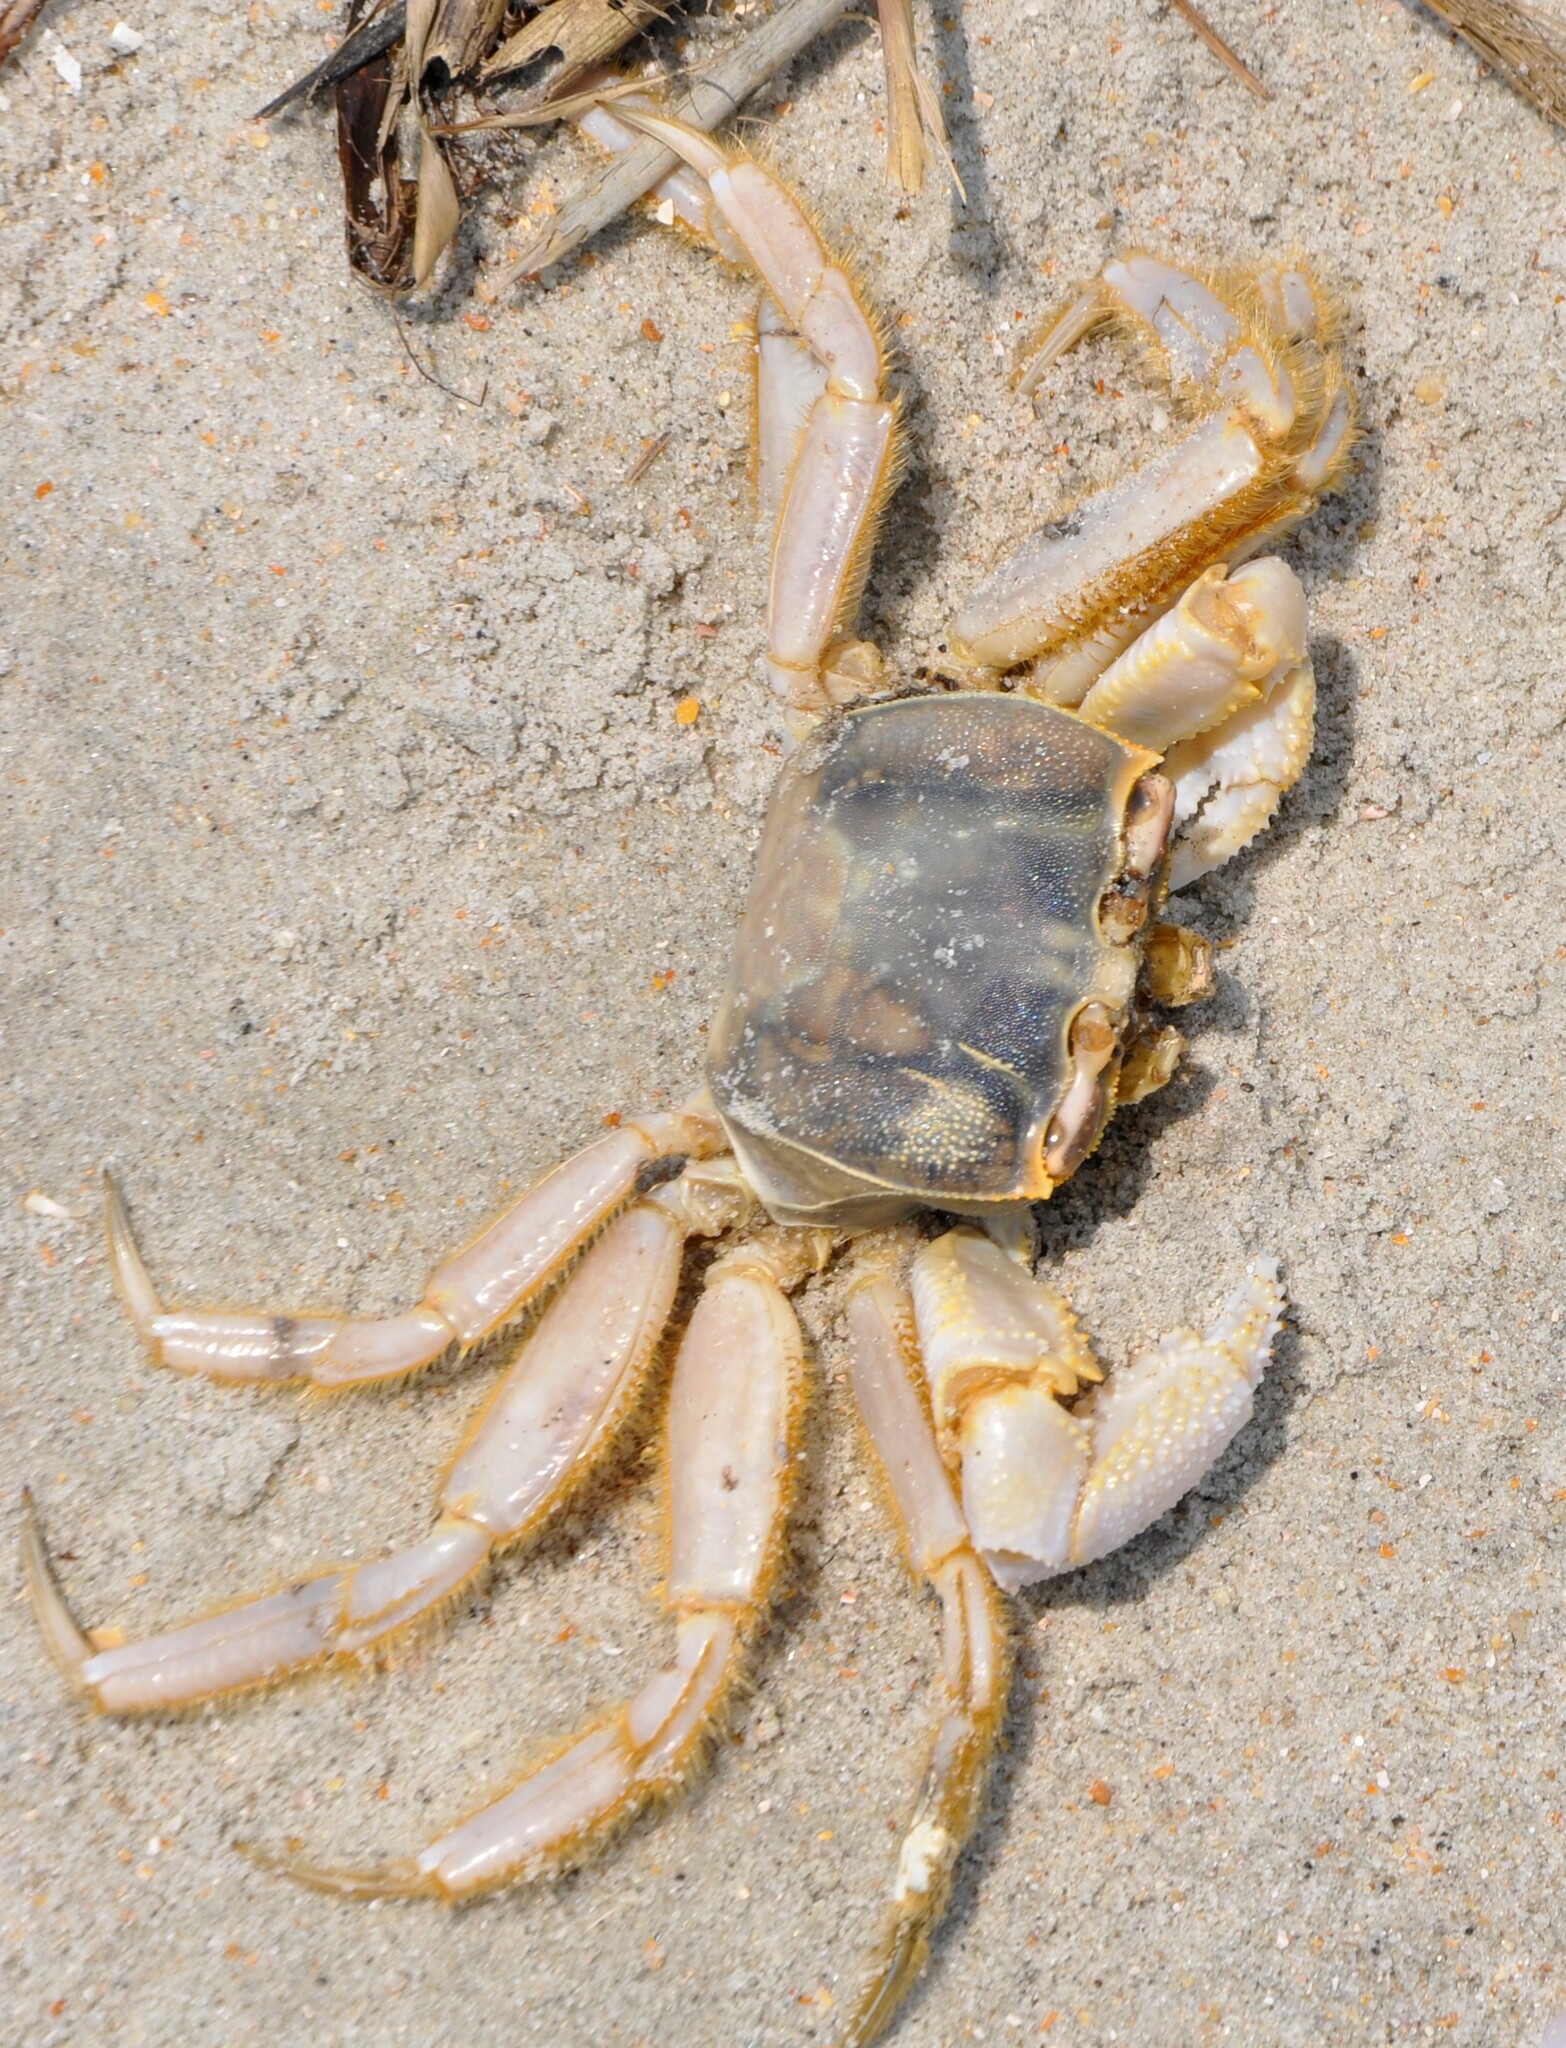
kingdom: Animalia
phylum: Arthropoda
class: Malacostraca
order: Decapoda
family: Ocypodidae
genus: Ocypode
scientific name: Ocypode quadrata
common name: Ghost crab
